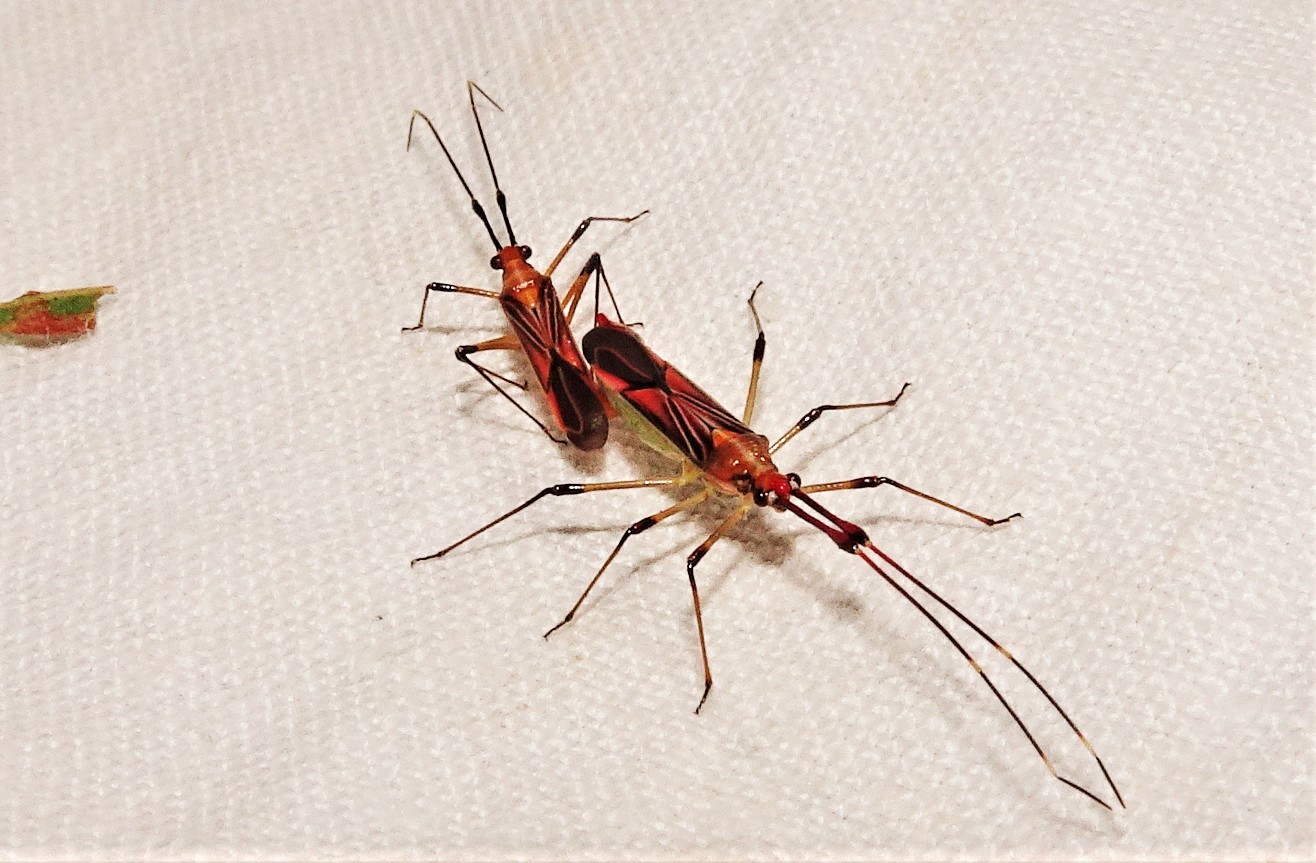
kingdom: Animalia
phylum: Arthropoda
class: Insecta
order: Hemiptera
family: Miridae
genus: Rayieria
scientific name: Rayieria
